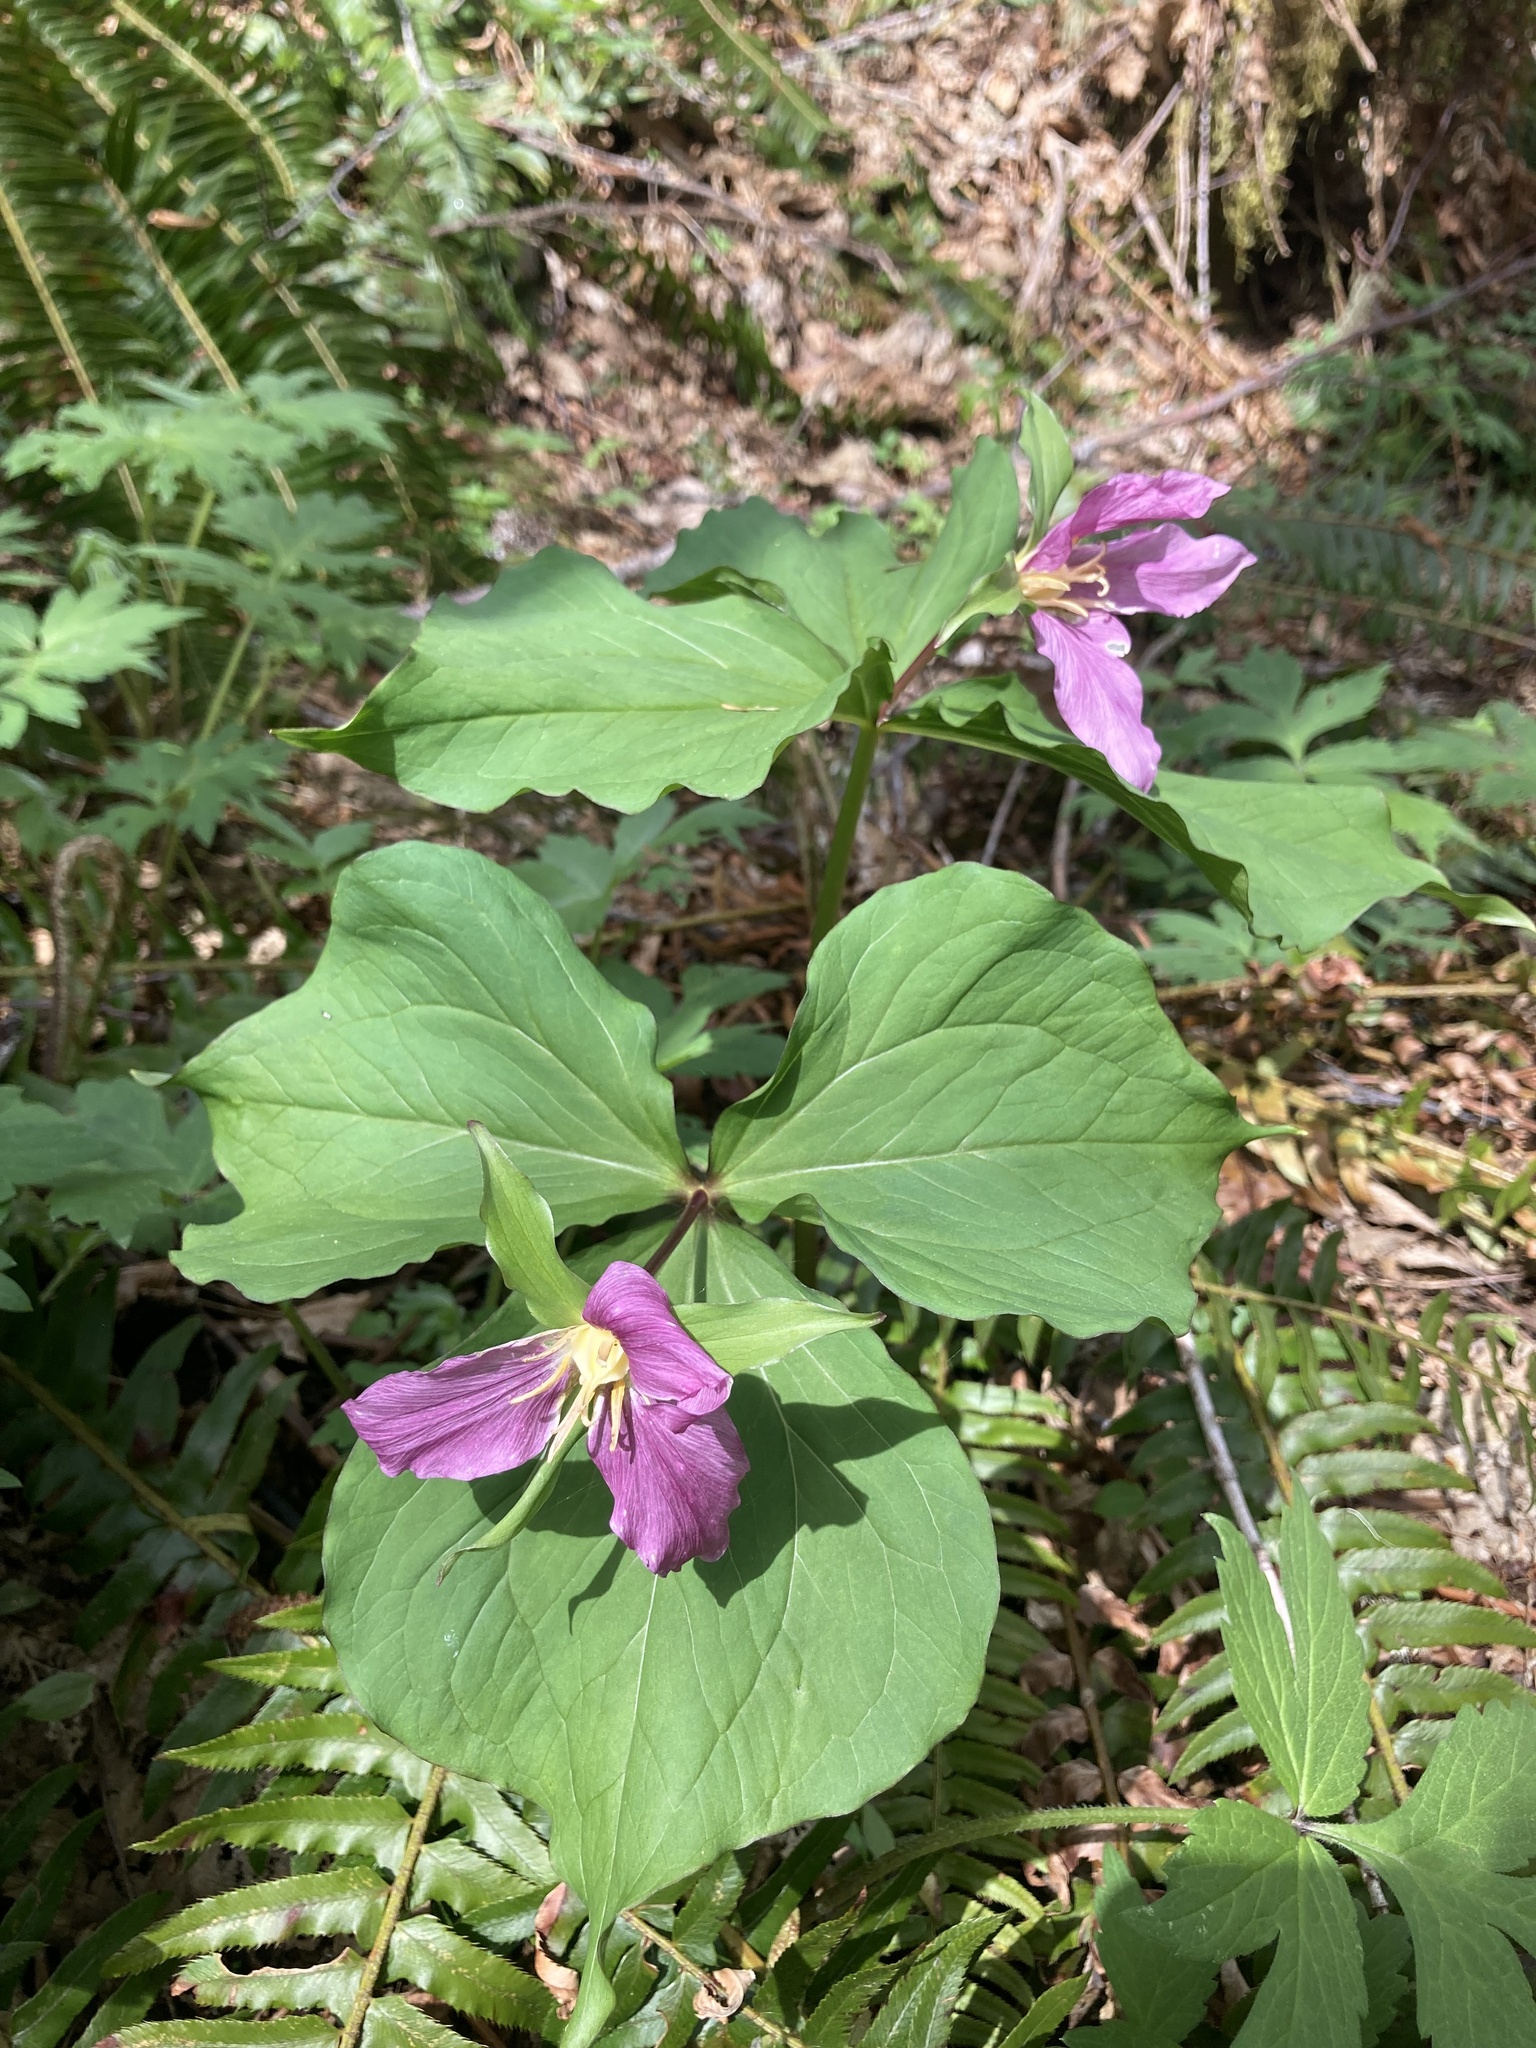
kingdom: Plantae
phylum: Tracheophyta
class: Liliopsida
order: Liliales
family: Melanthiaceae
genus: Trillium
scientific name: Trillium ovatum
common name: Pacific trillium
